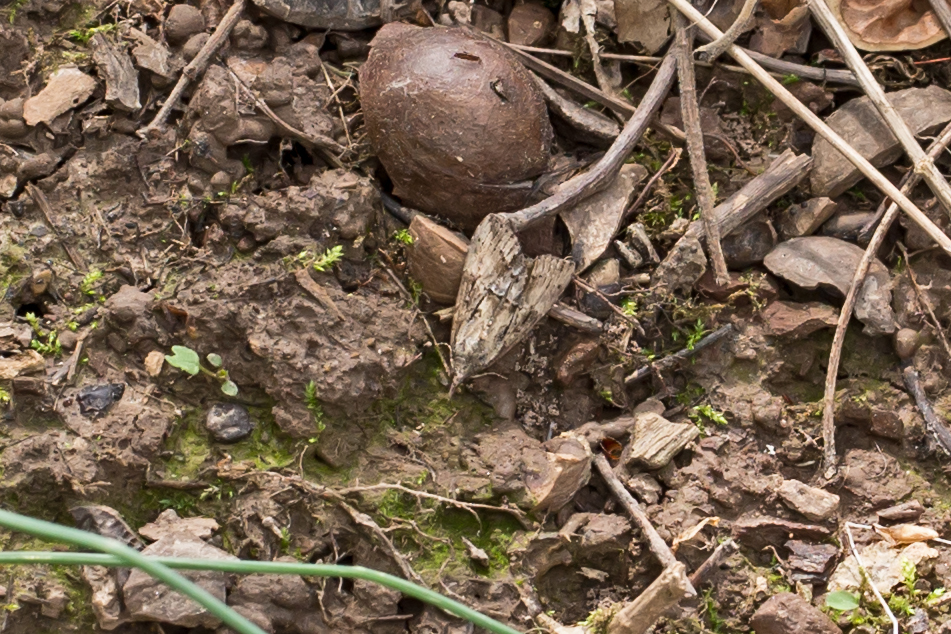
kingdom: Animalia
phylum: Arthropoda
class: Insecta
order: Lepidoptera
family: Erebidae
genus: Hypena
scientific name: Hypena scabra
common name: Green cloverworm
